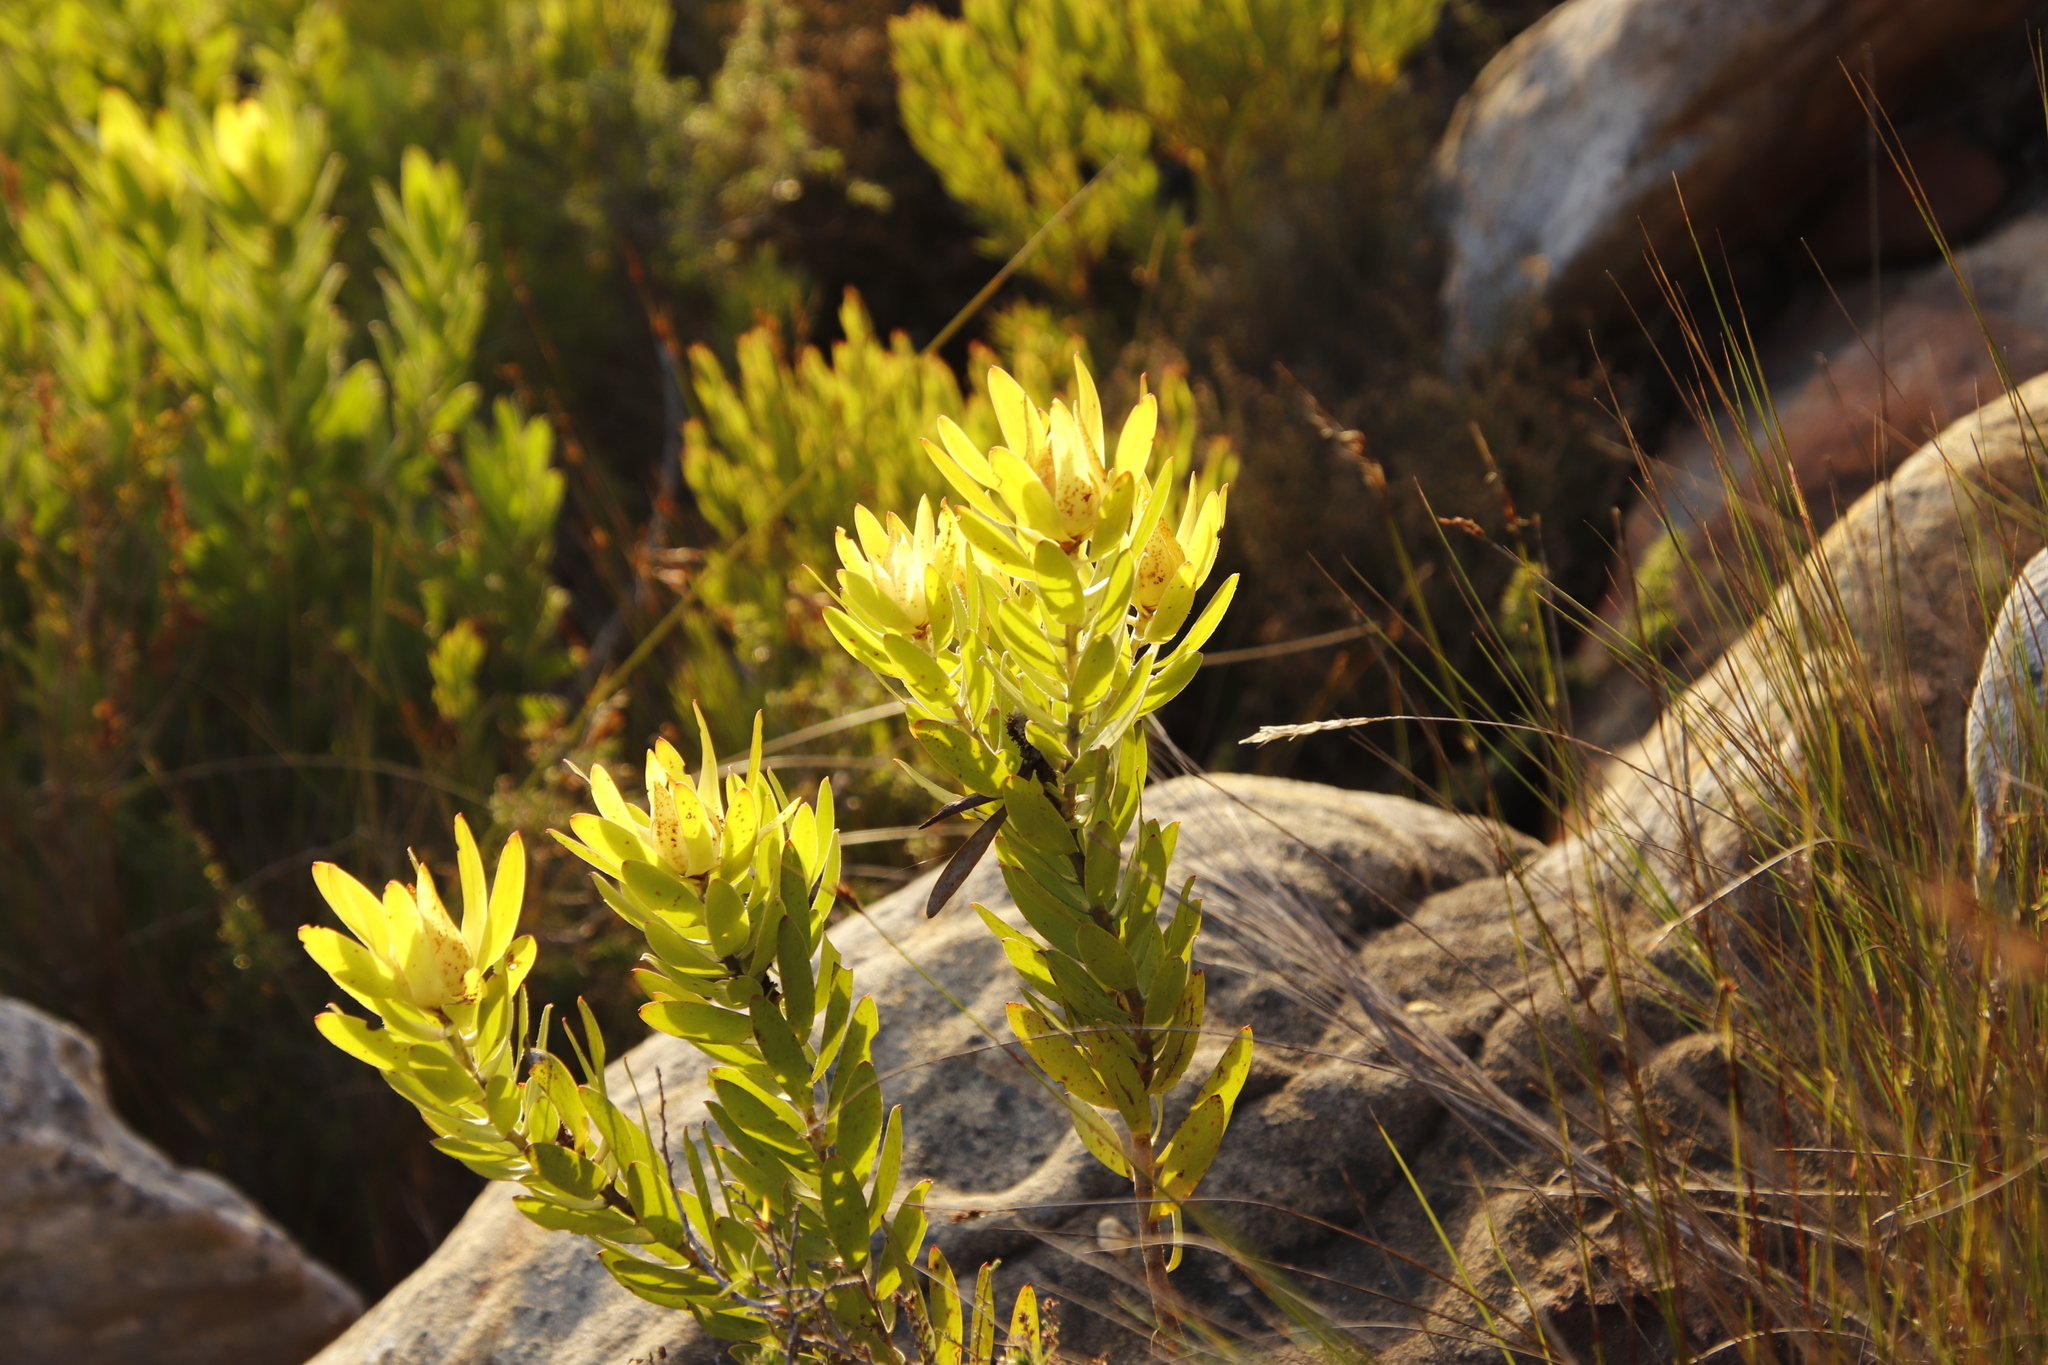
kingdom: Plantae
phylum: Tracheophyta
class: Magnoliopsida
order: Proteales
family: Proteaceae
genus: Leucadendron
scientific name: Leucadendron laureolum
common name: Golden sunshinebush
